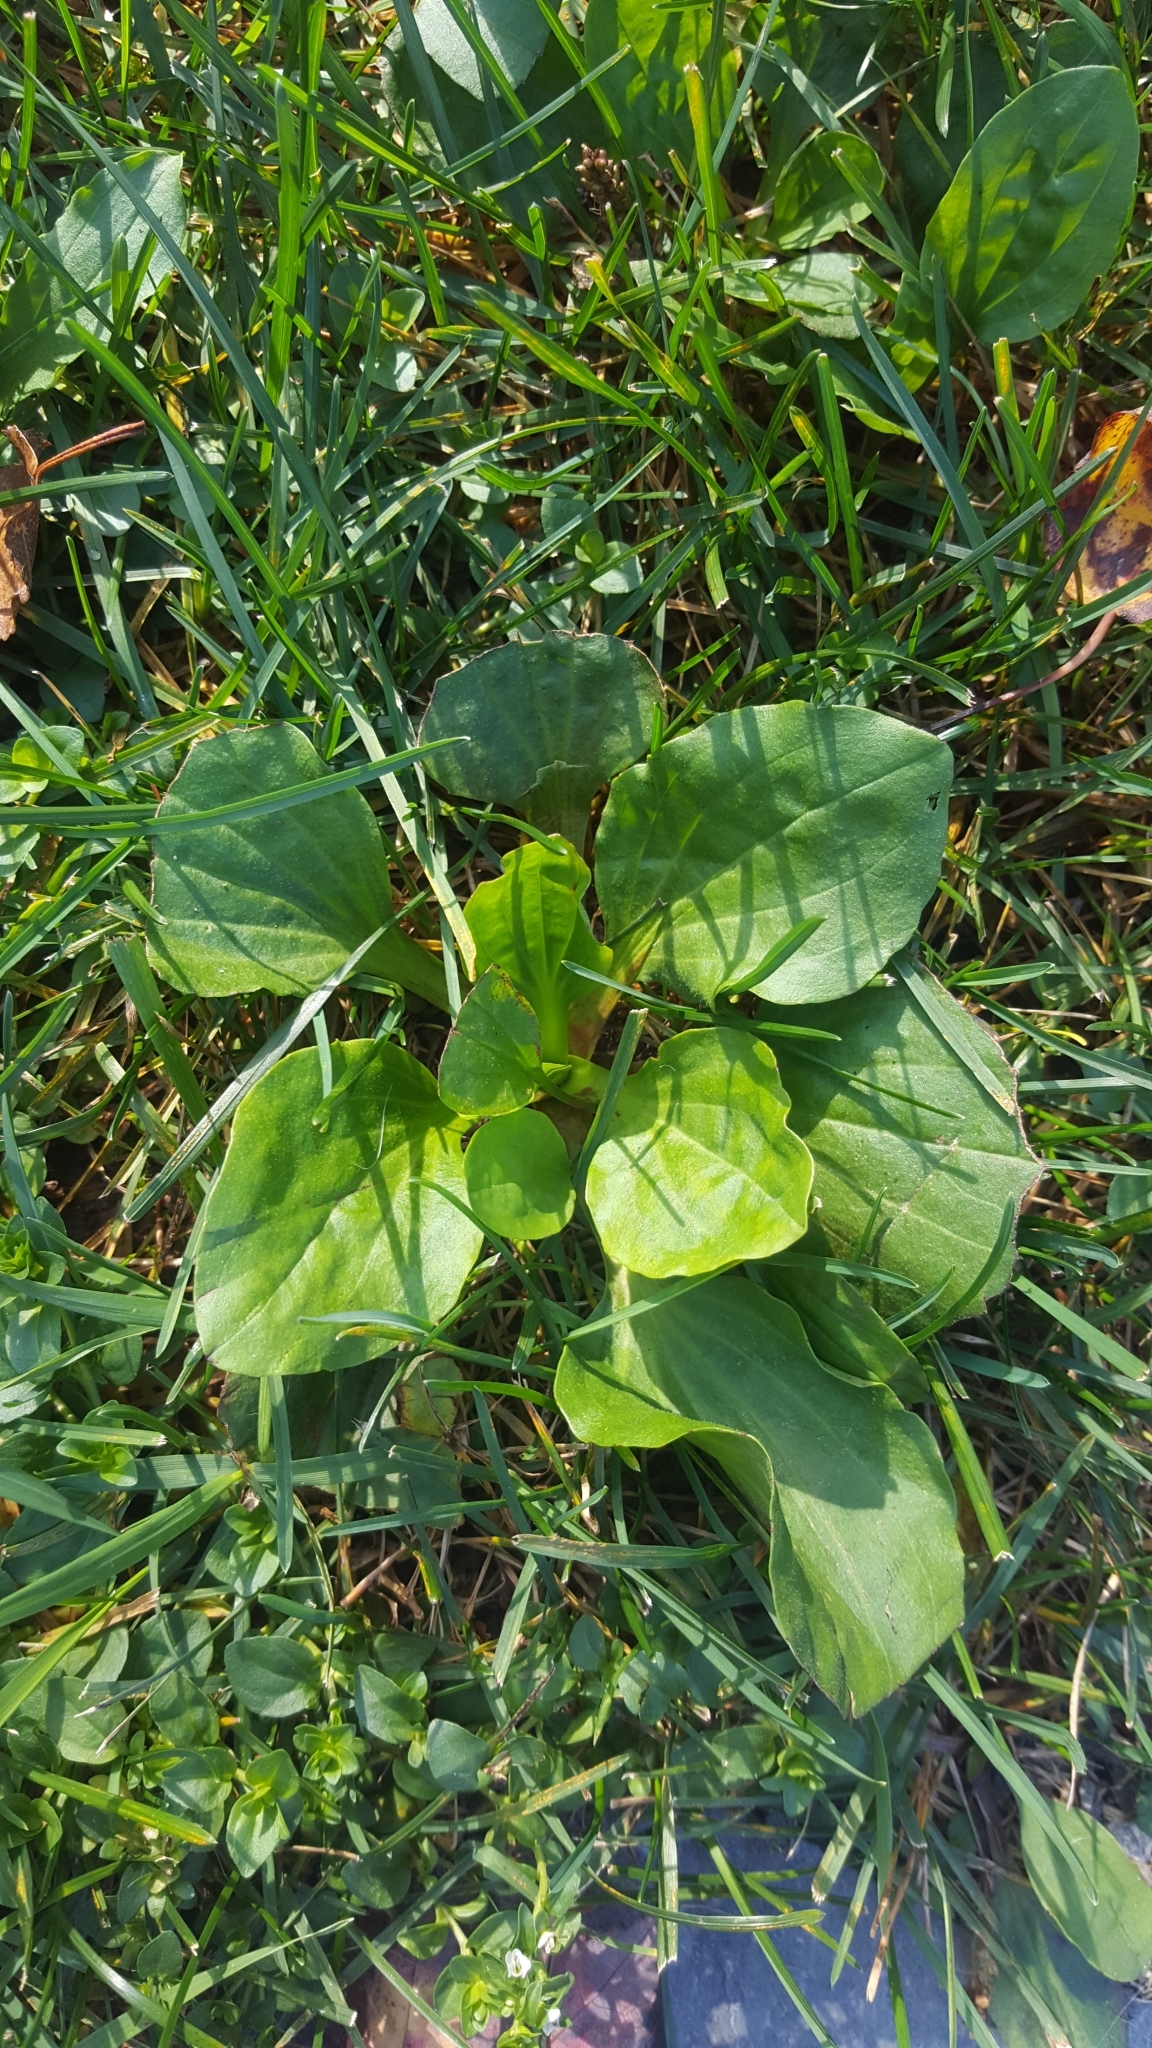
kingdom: Plantae
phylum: Tracheophyta
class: Magnoliopsida
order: Lamiales
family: Plantaginaceae
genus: Plantago
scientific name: Plantago major
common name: Common plantain
